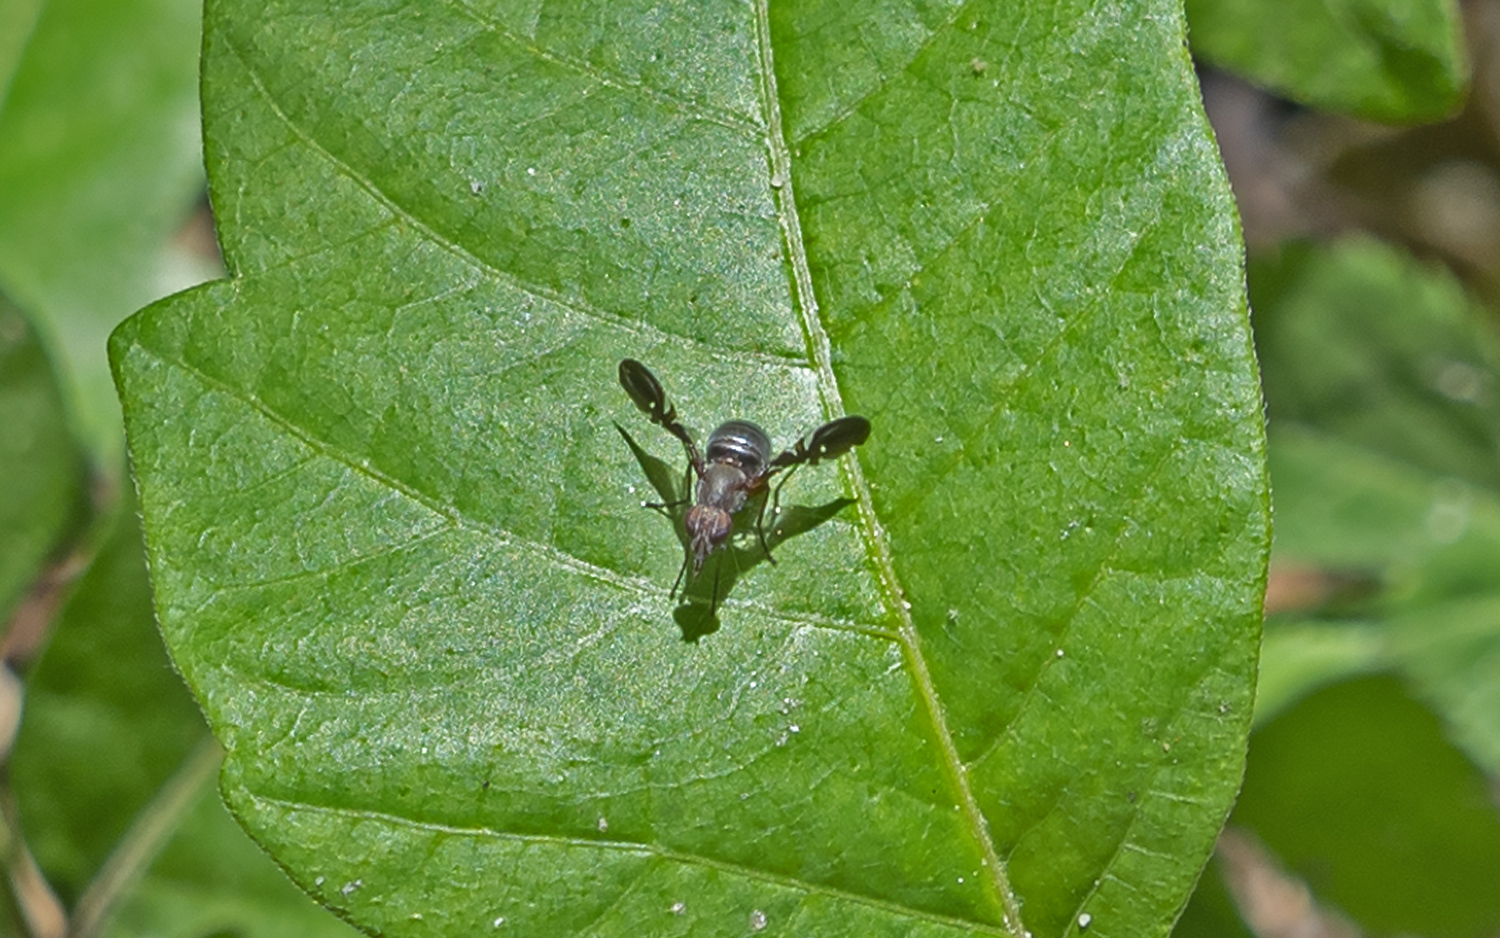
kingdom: Animalia
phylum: Arthropoda
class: Insecta
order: Diptera
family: Ulidiidae
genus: Delphinia
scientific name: Delphinia picta
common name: Common picture-winged fly
